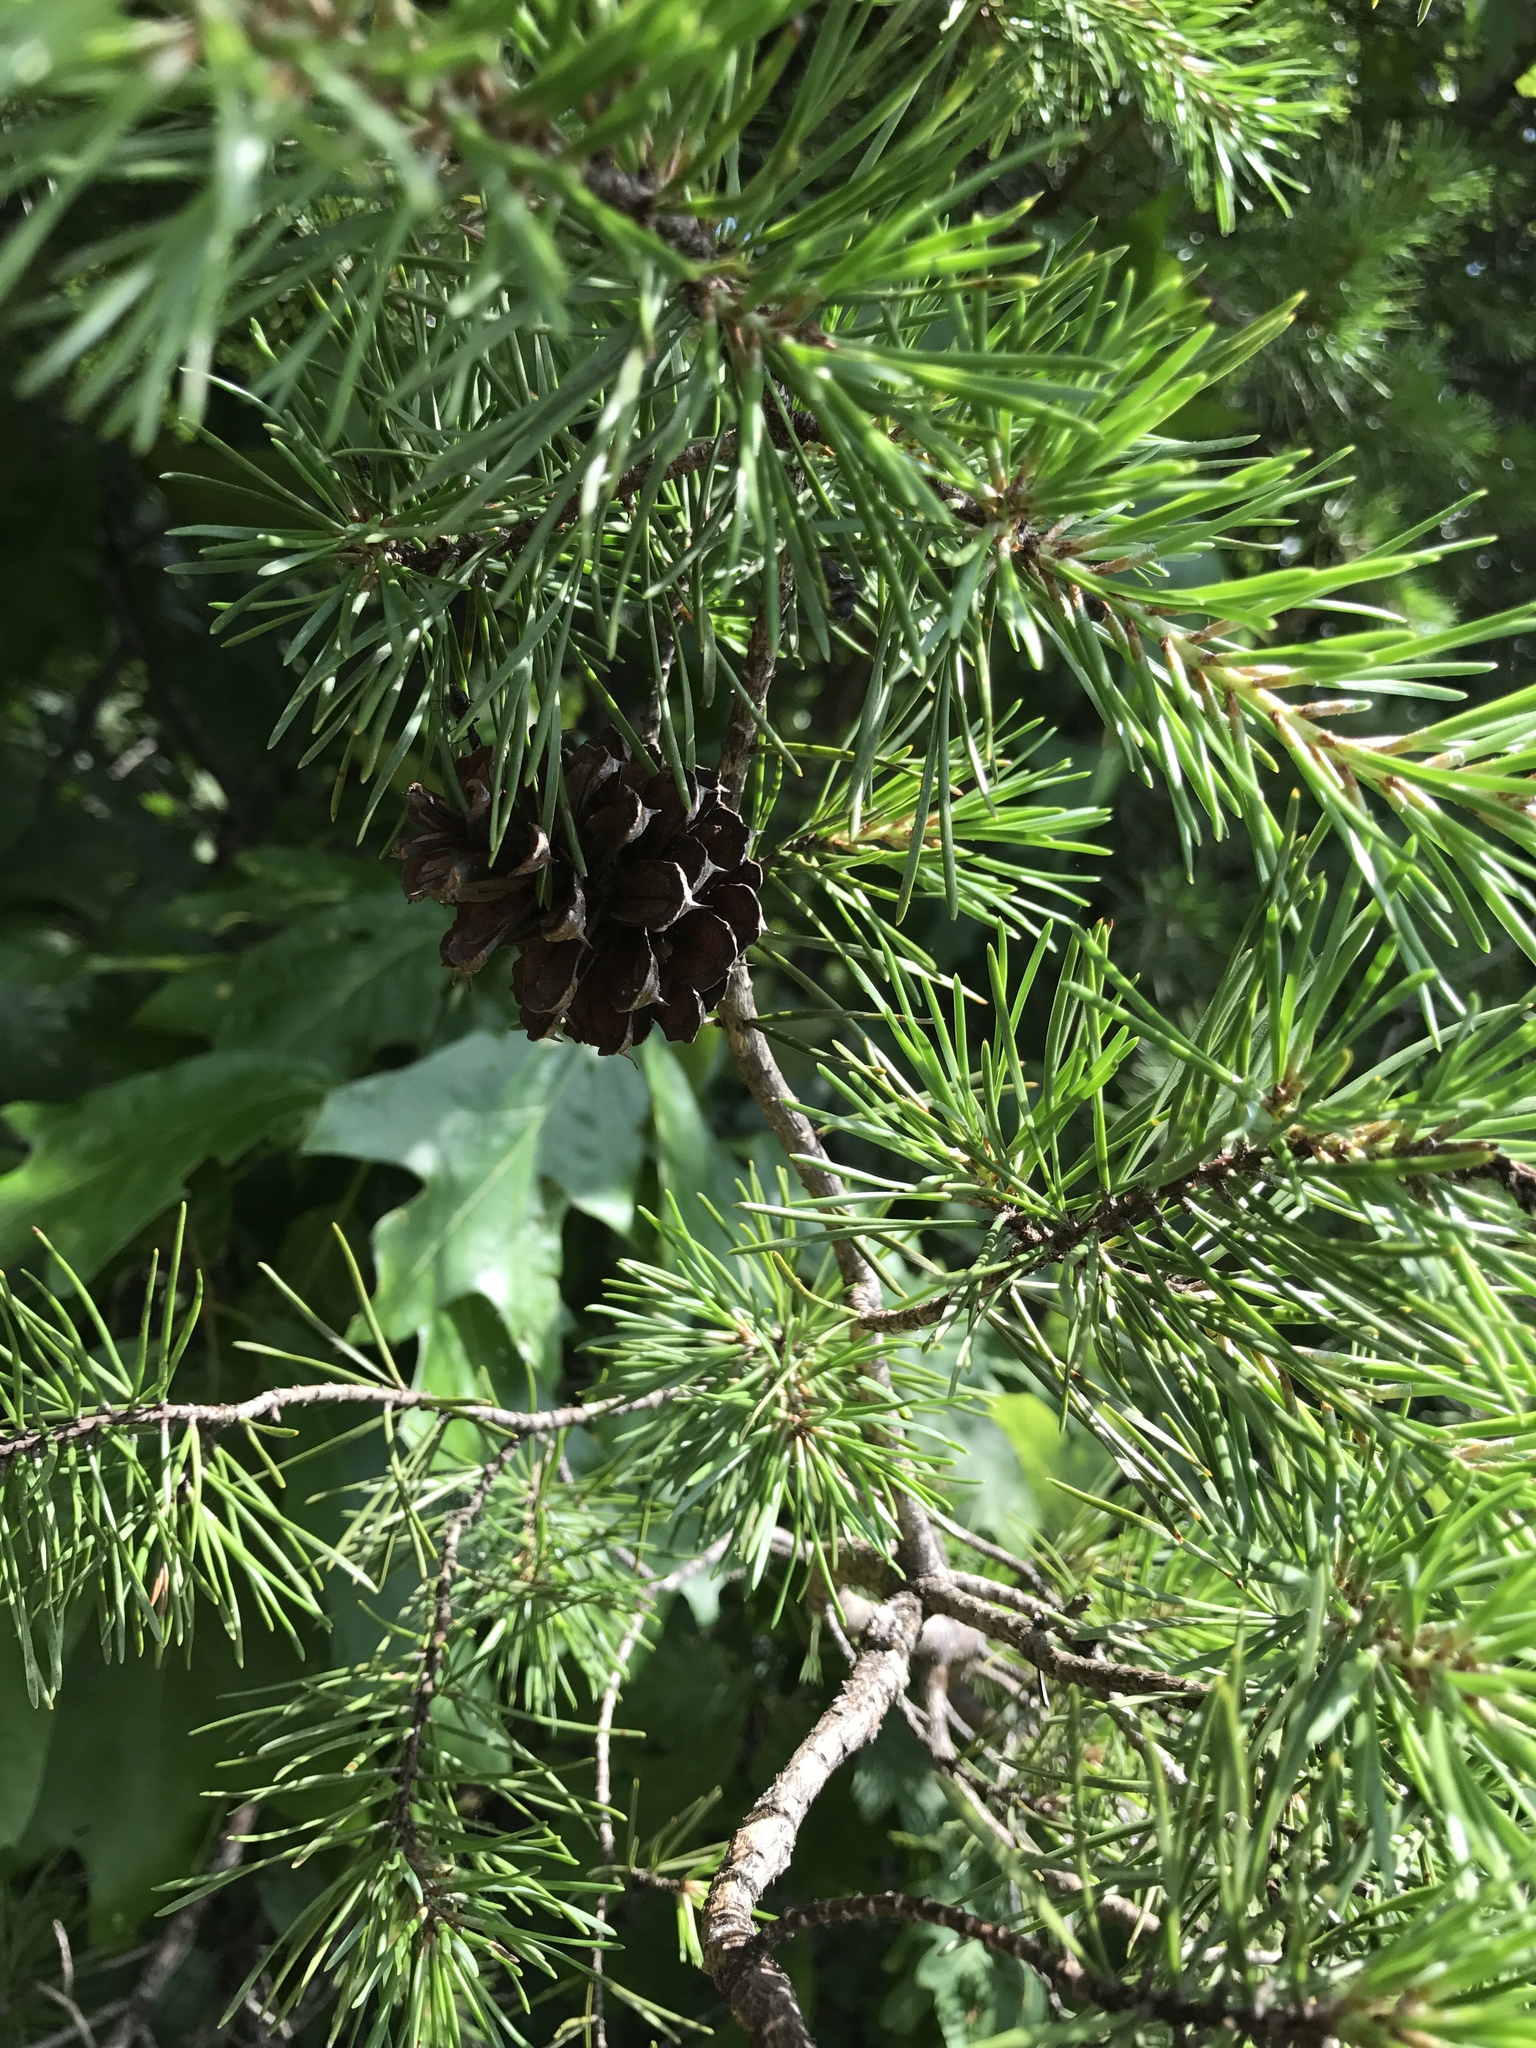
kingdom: Plantae
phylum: Tracheophyta
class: Pinopsida
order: Pinales
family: Pinaceae
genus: Pinus
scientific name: Pinus virginiana
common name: Scrub pine
